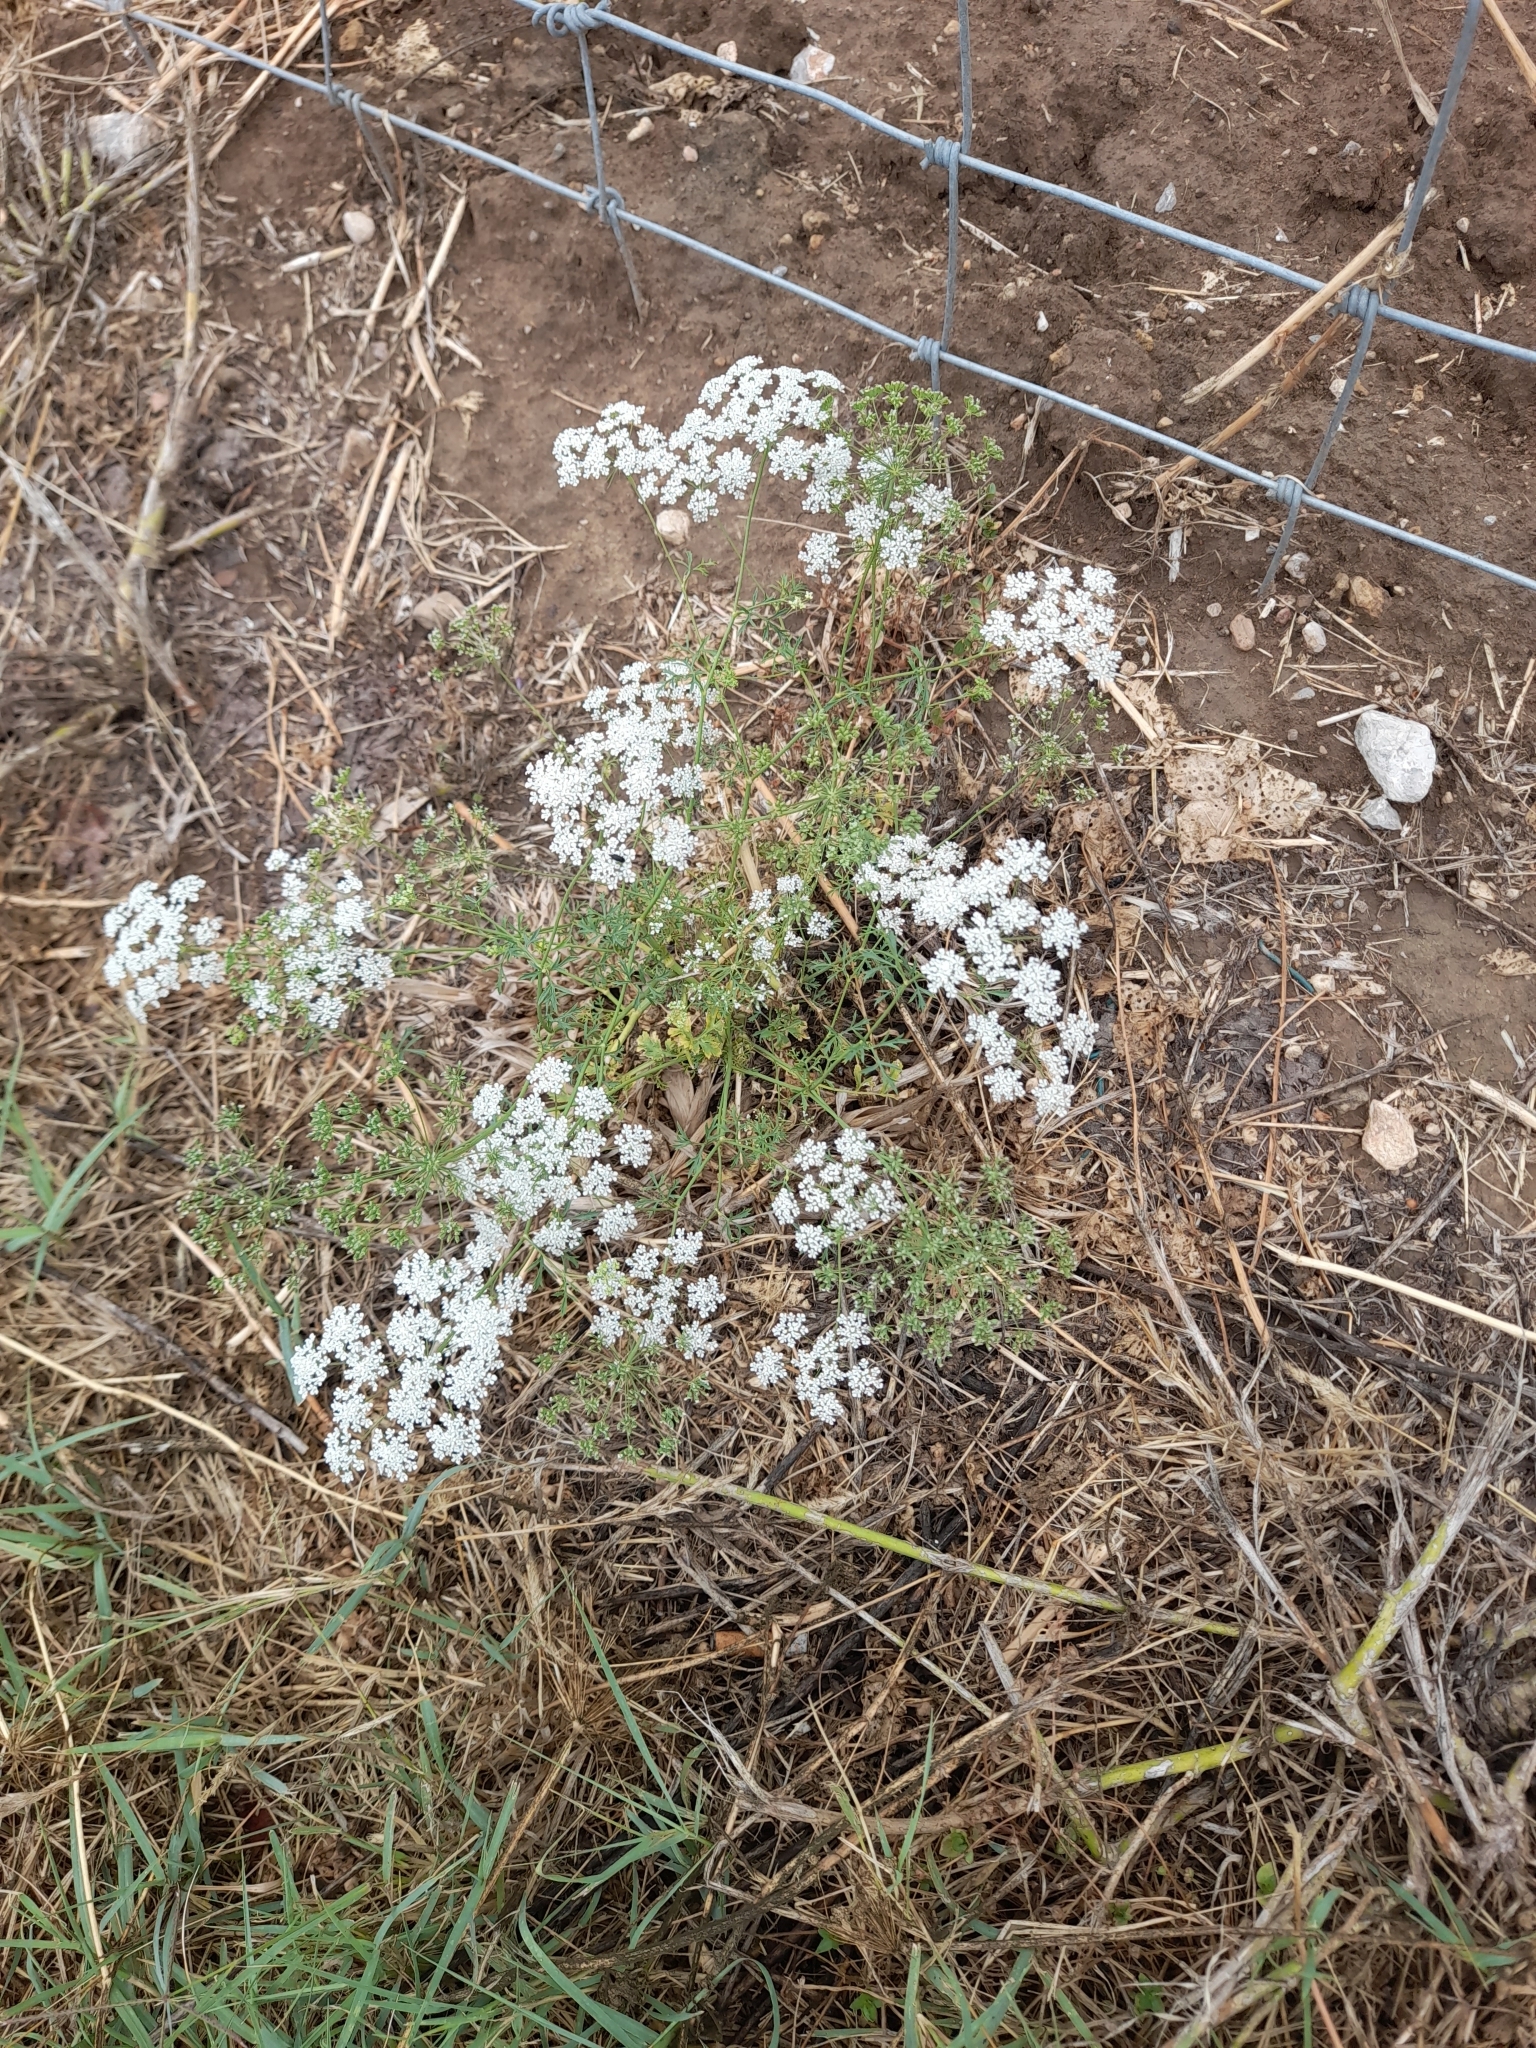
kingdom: Plantae
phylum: Tracheophyta
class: Magnoliopsida
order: Apiales
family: Apiaceae
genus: Ammi
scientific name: Ammi majus
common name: Bullwort
